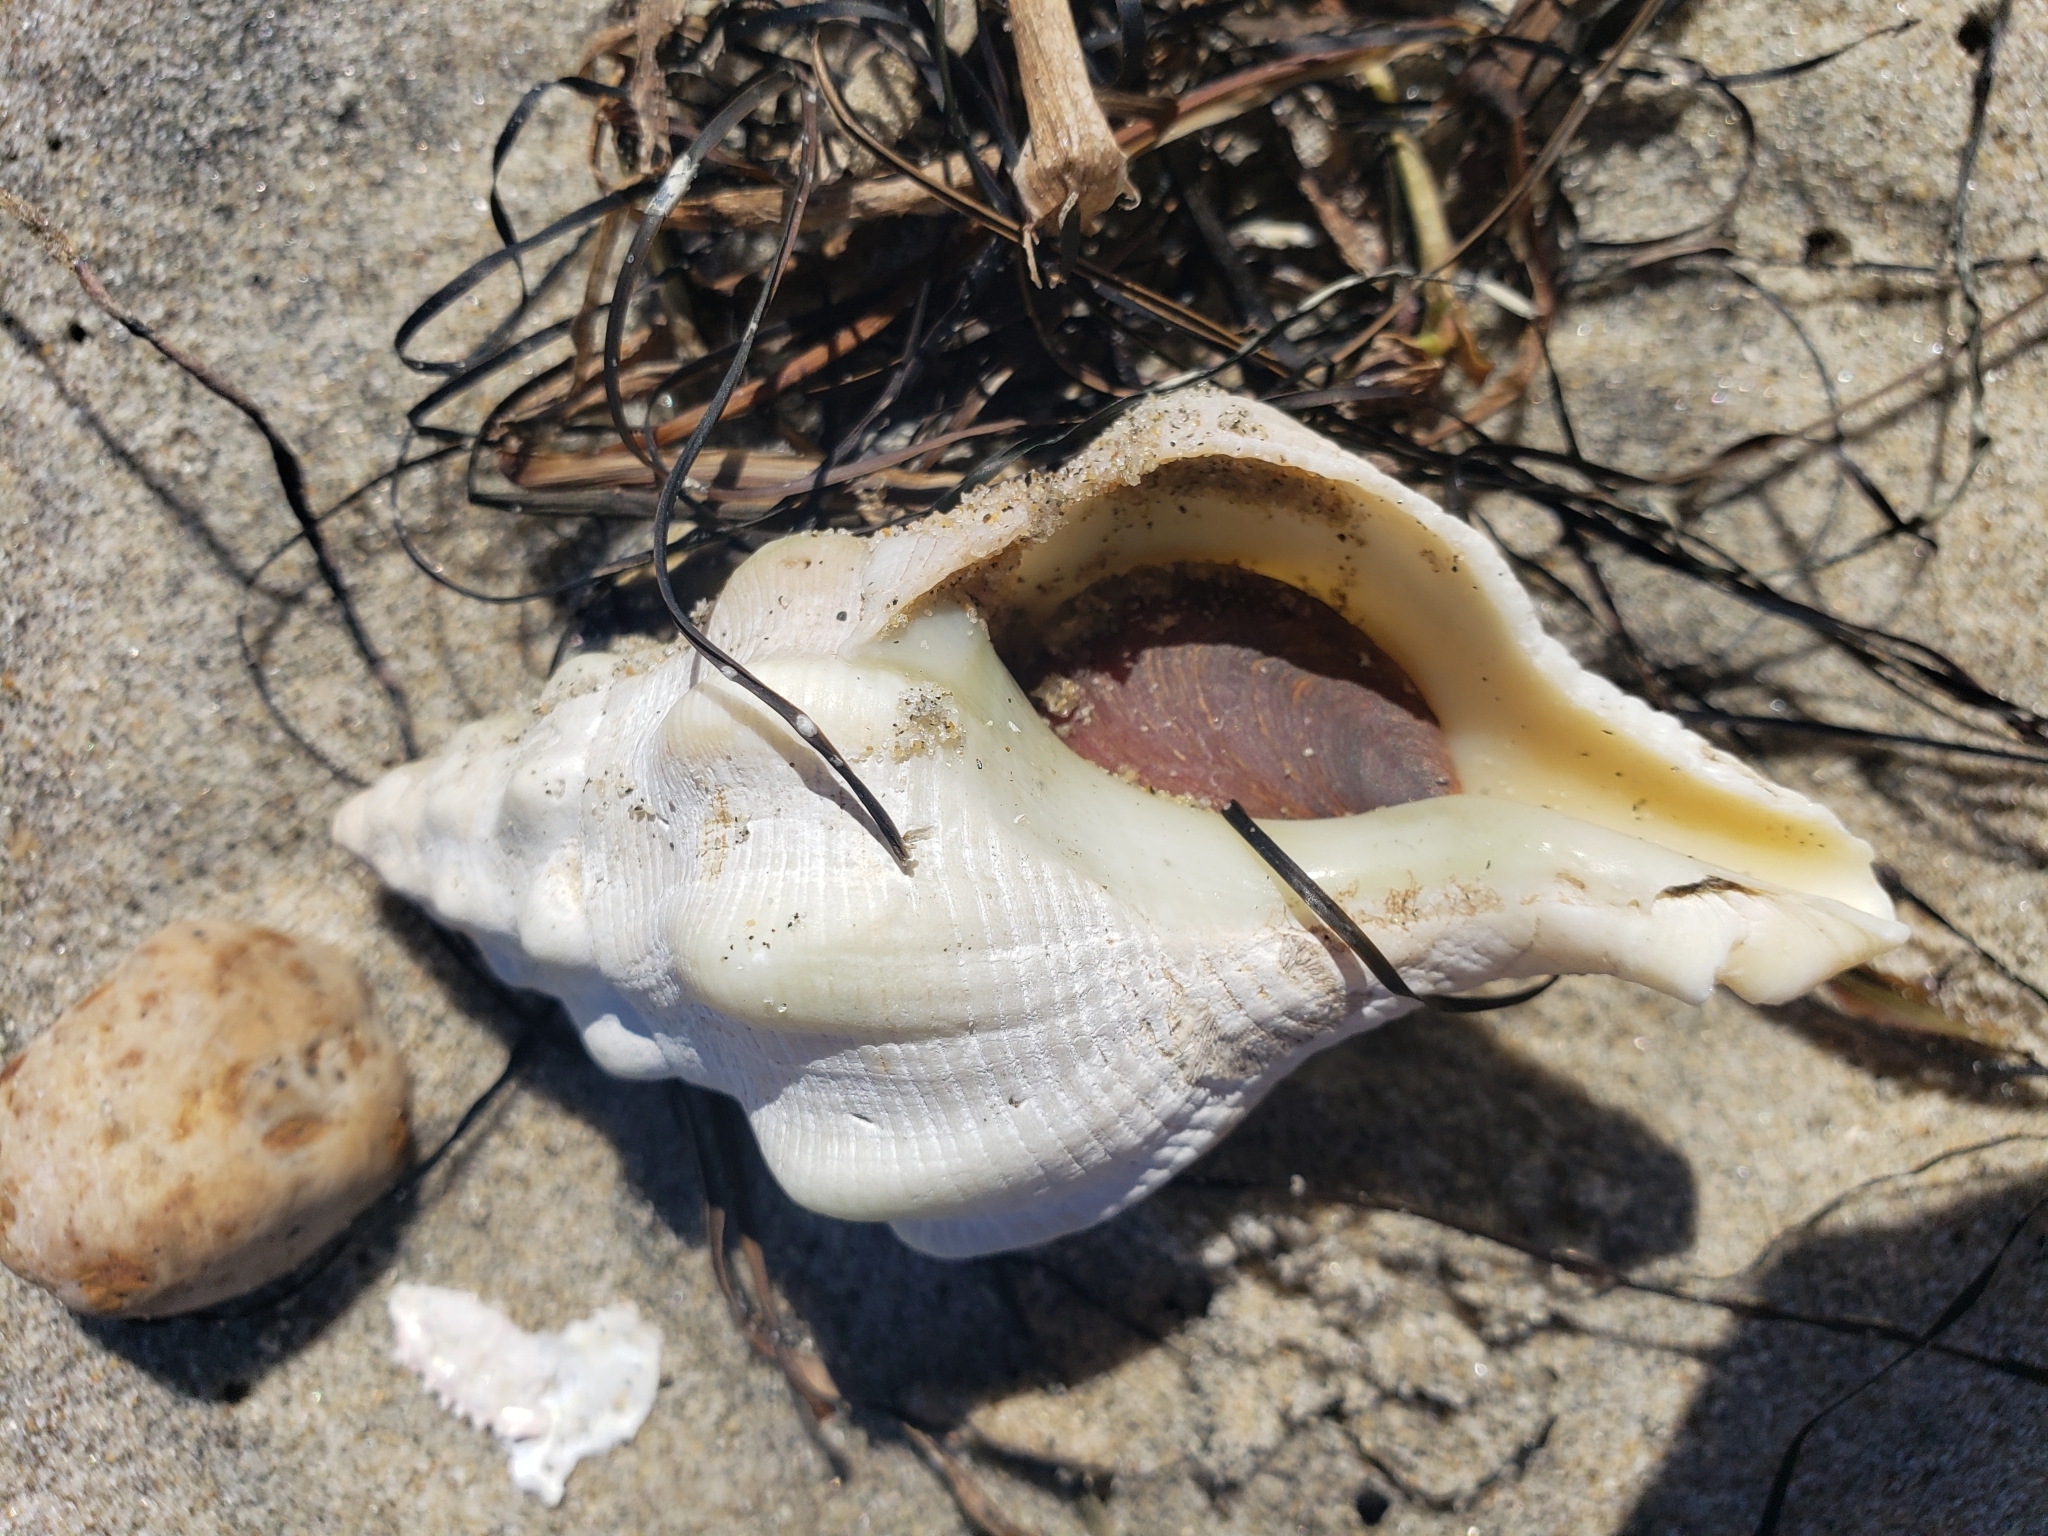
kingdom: Animalia
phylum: Mollusca
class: Gastropoda
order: Neogastropoda
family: Austrosiphonidae
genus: Kelletia
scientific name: Kelletia kelletii
